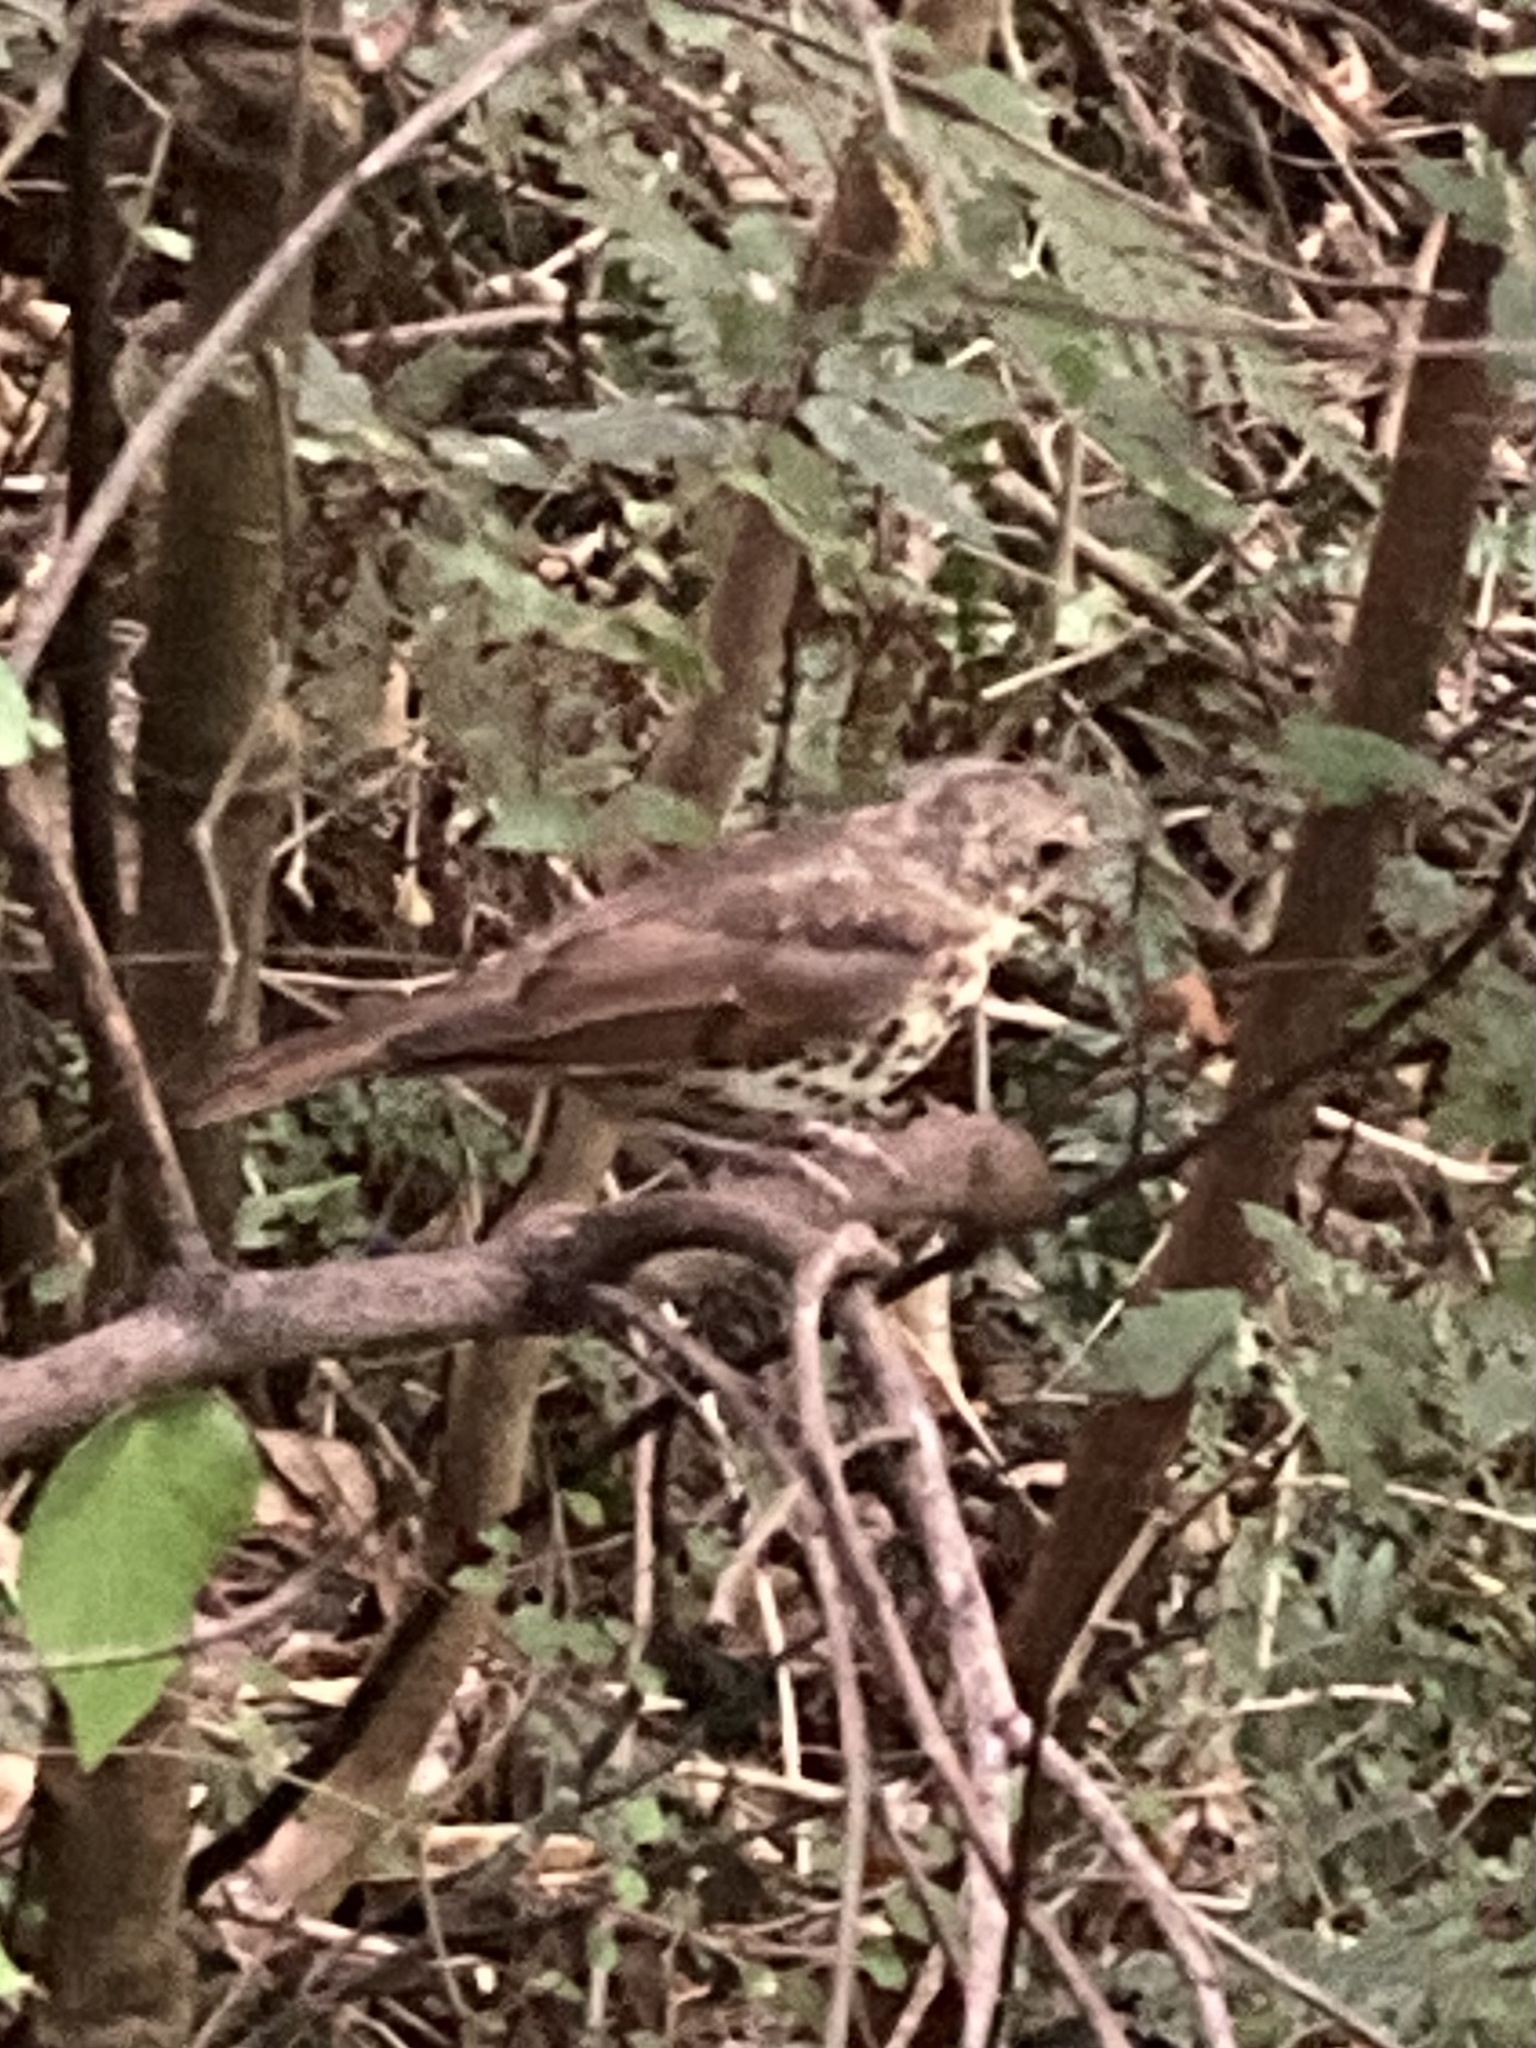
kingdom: Animalia
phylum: Chordata
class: Aves
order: Passeriformes
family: Turdidae
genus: Turdus
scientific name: Turdus philomelos
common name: Song thrush
